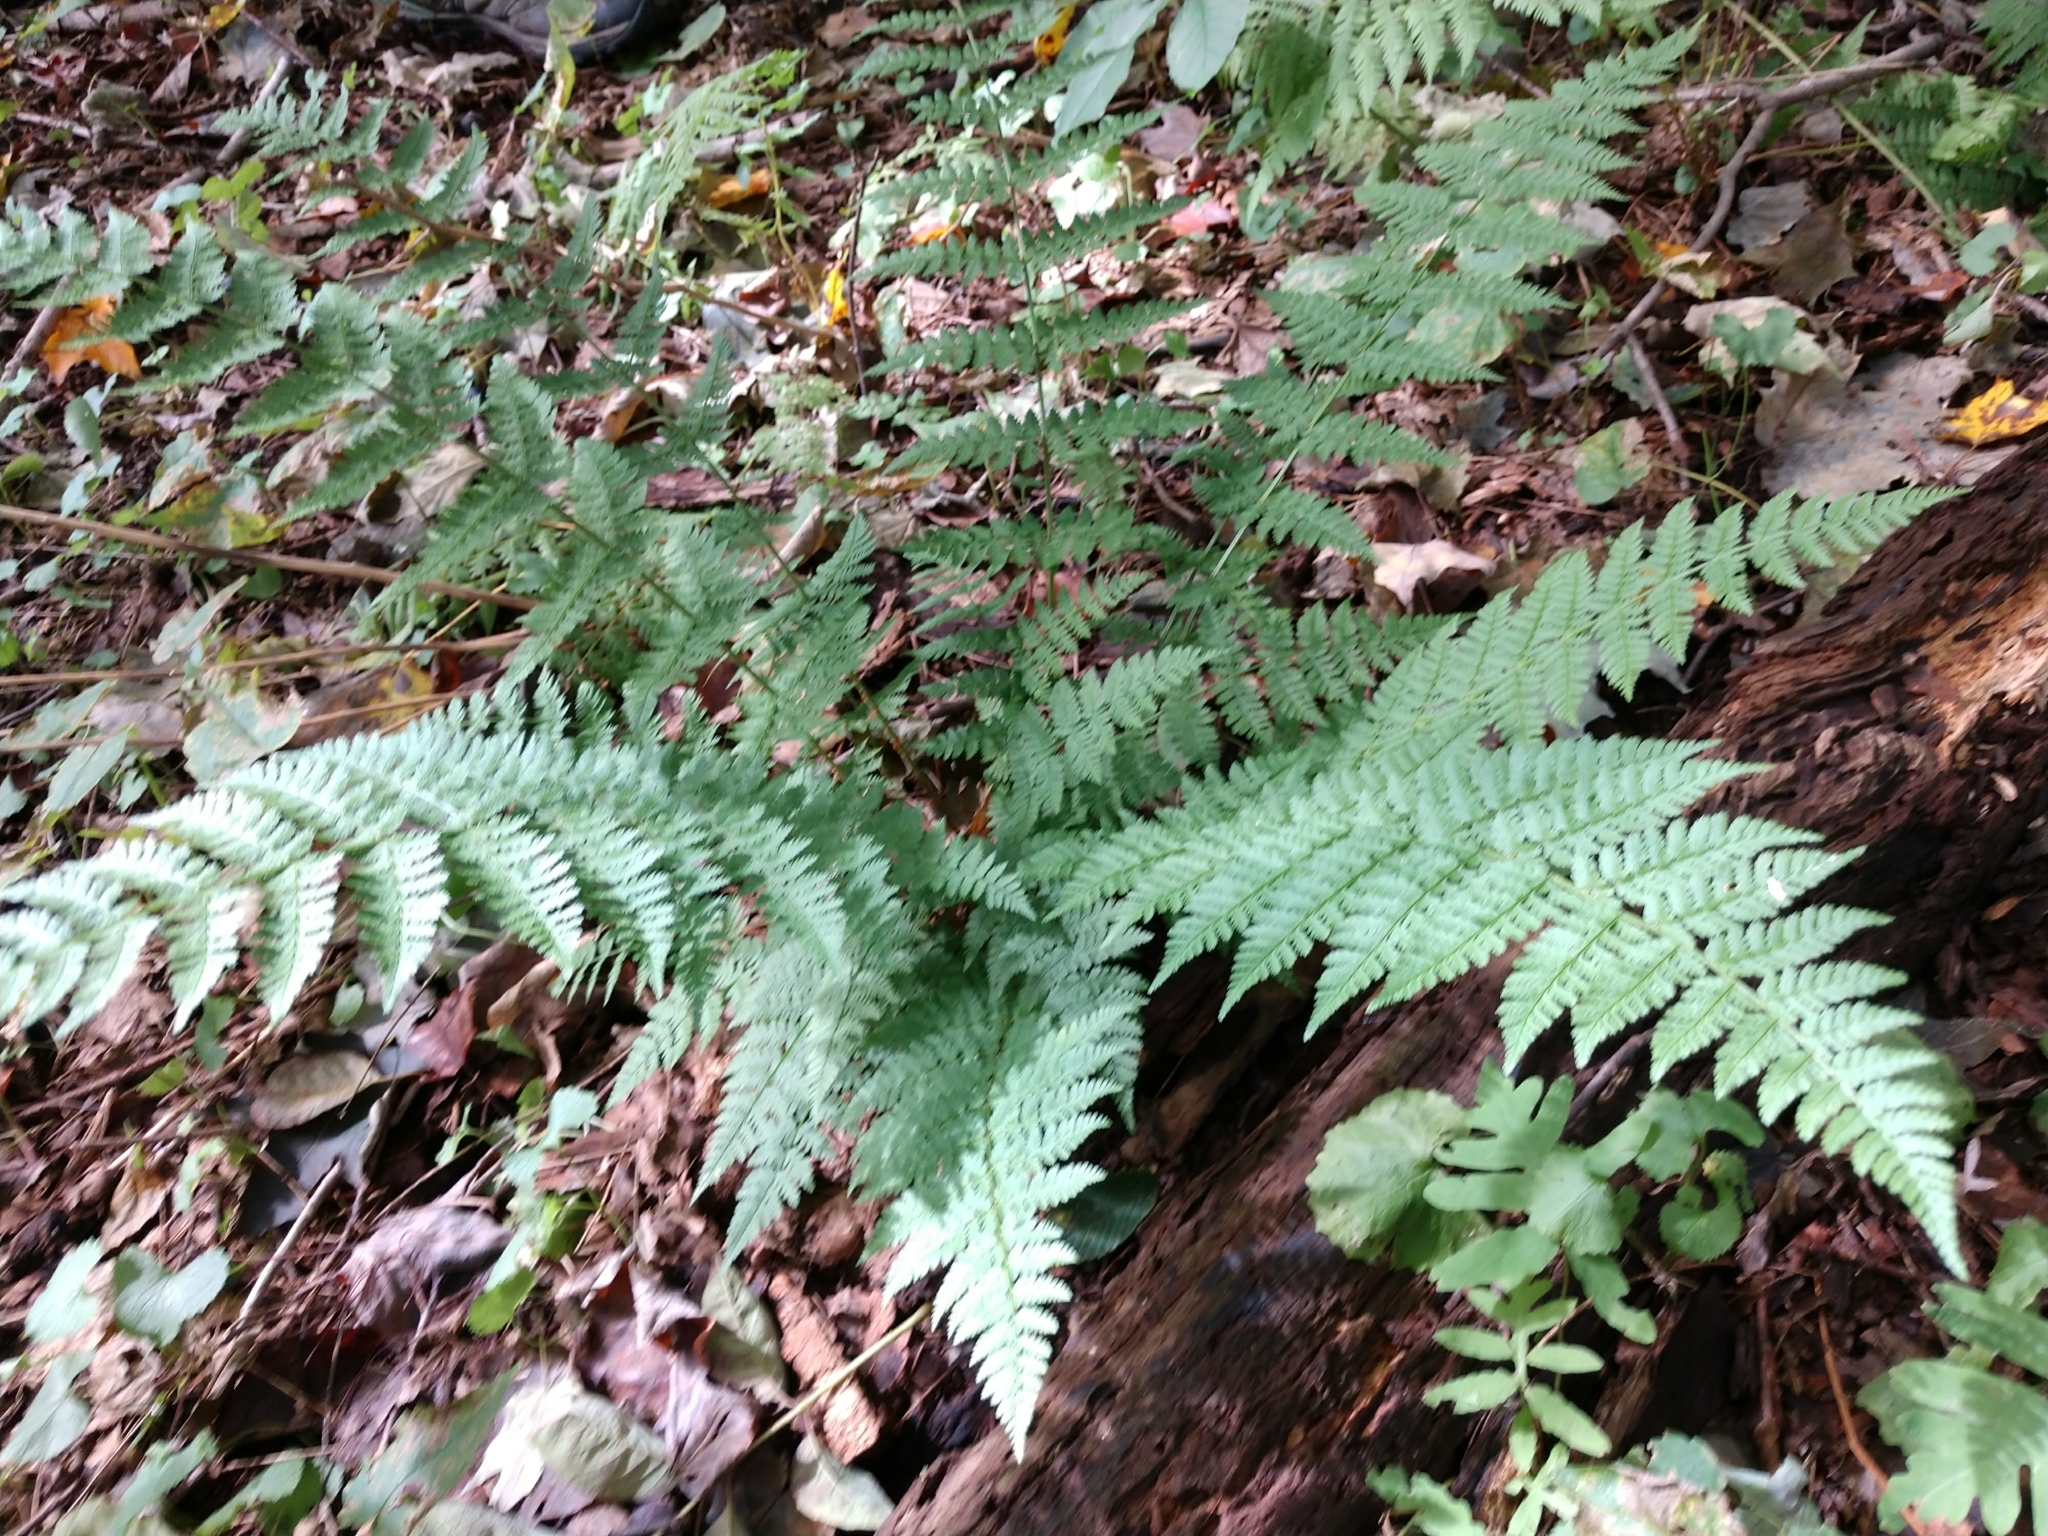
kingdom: Plantae
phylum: Tracheophyta
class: Polypodiopsida
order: Polypodiales
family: Dryopteridaceae
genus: Dryopteris
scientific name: Dryopteris intermedia
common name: Evergreen wood fern
